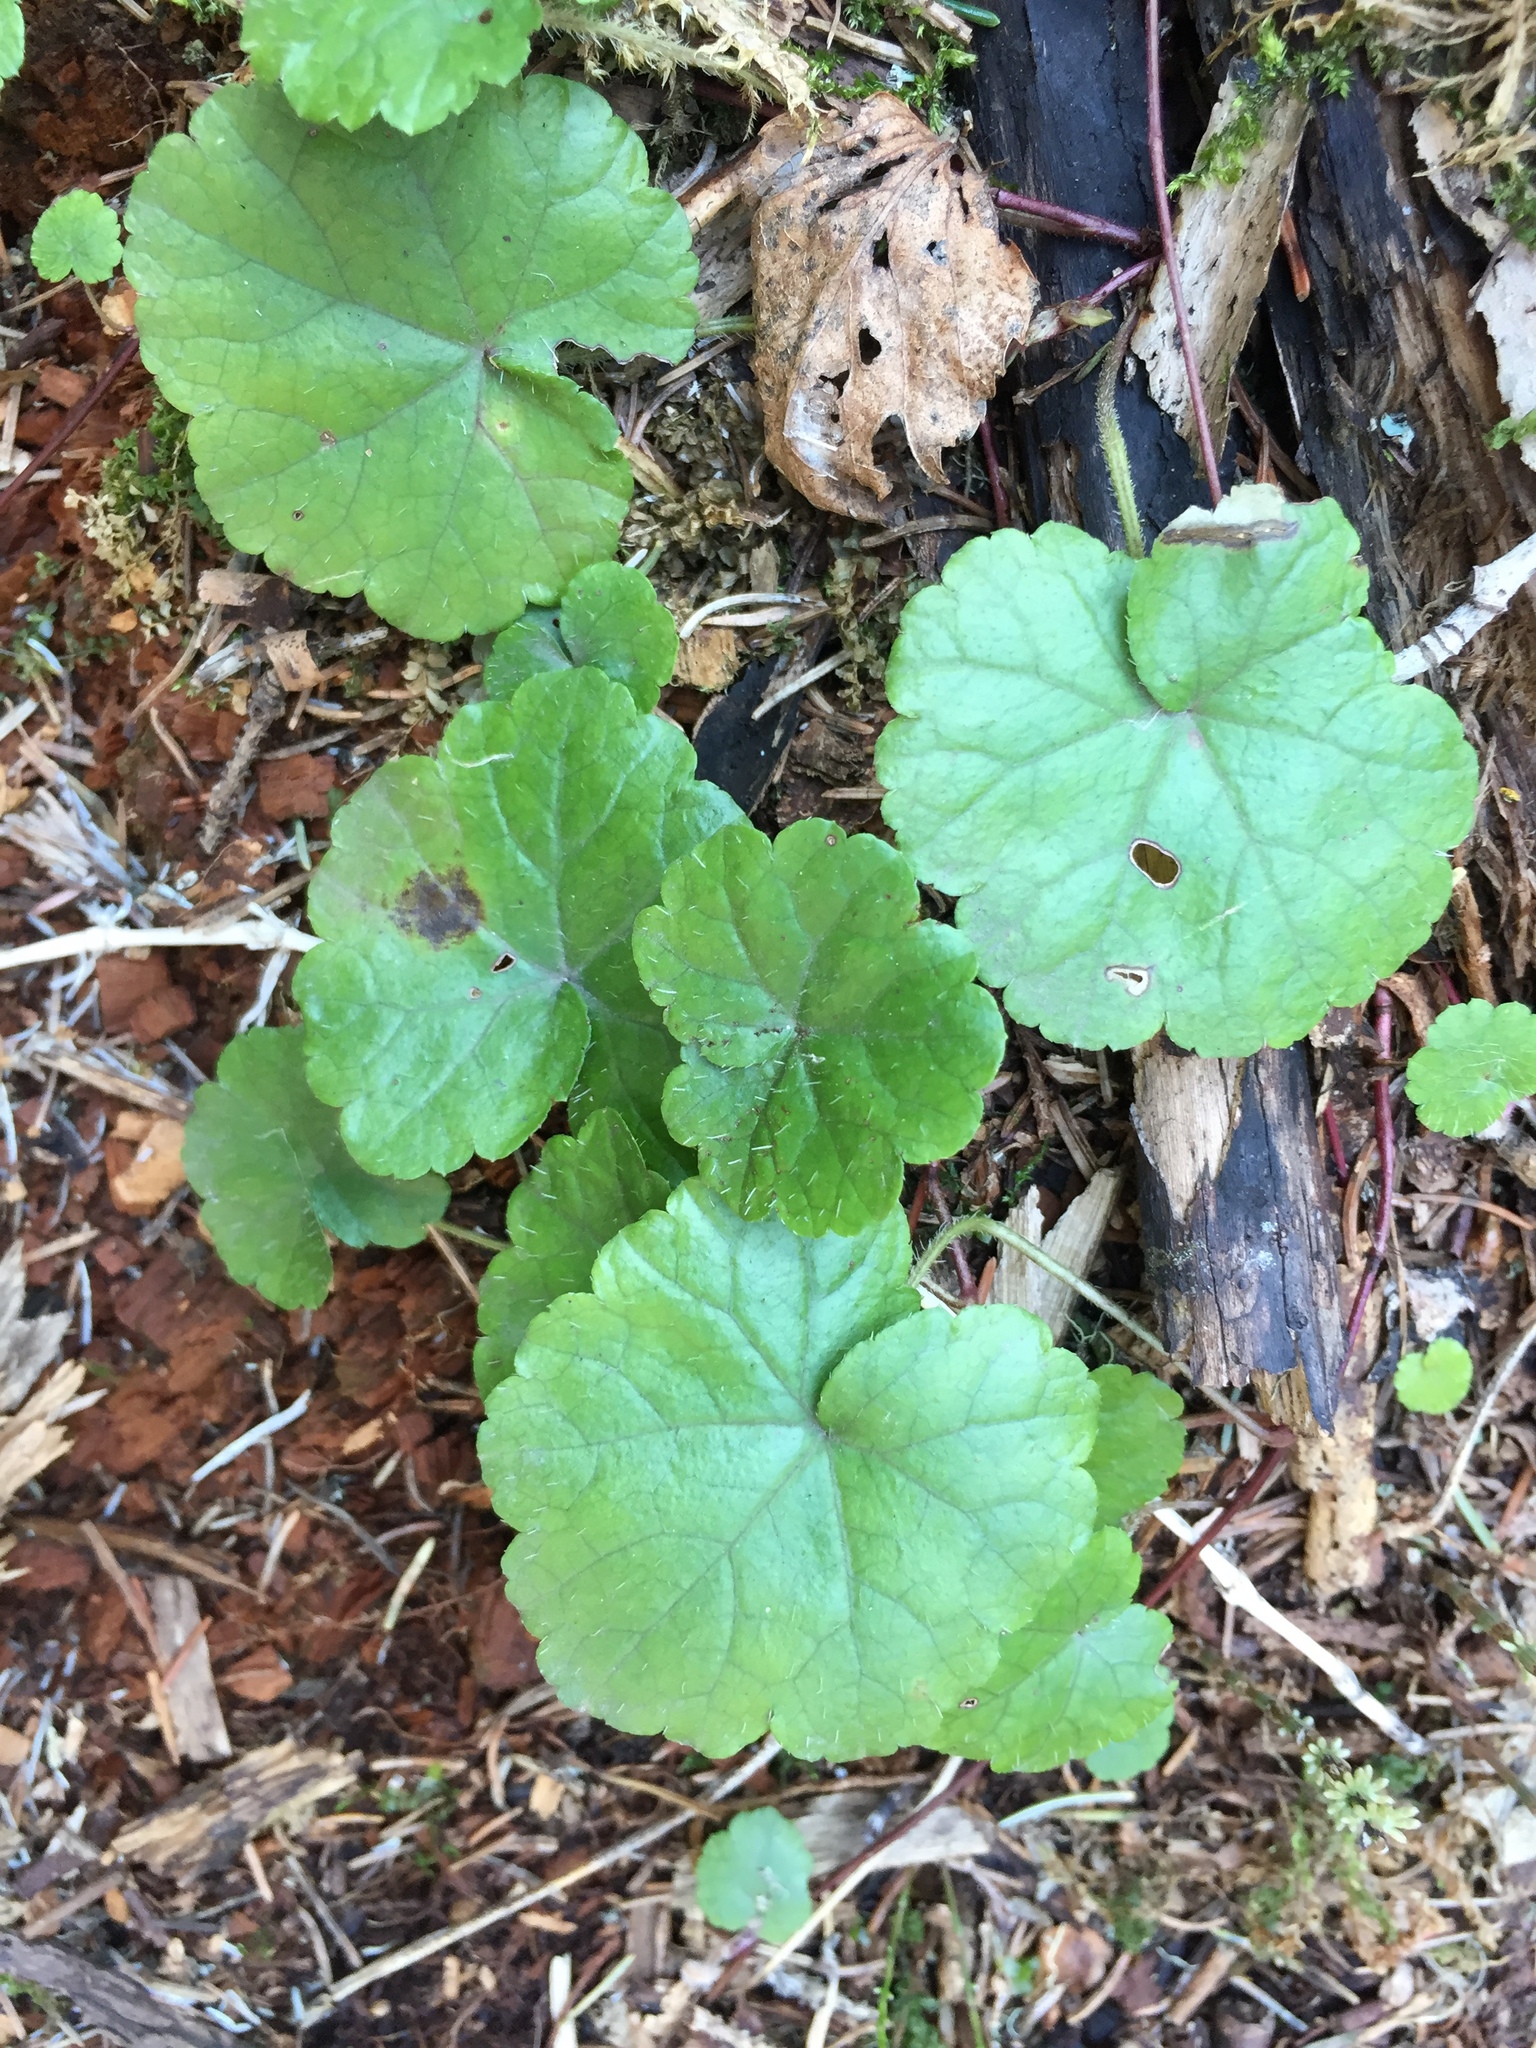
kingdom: Plantae
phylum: Tracheophyta
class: Magnoliopsida
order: Saxifragales
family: Saxifragaceae
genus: Mitella
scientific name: Mitella nuda
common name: Bare-stemmed bishop's-cap
